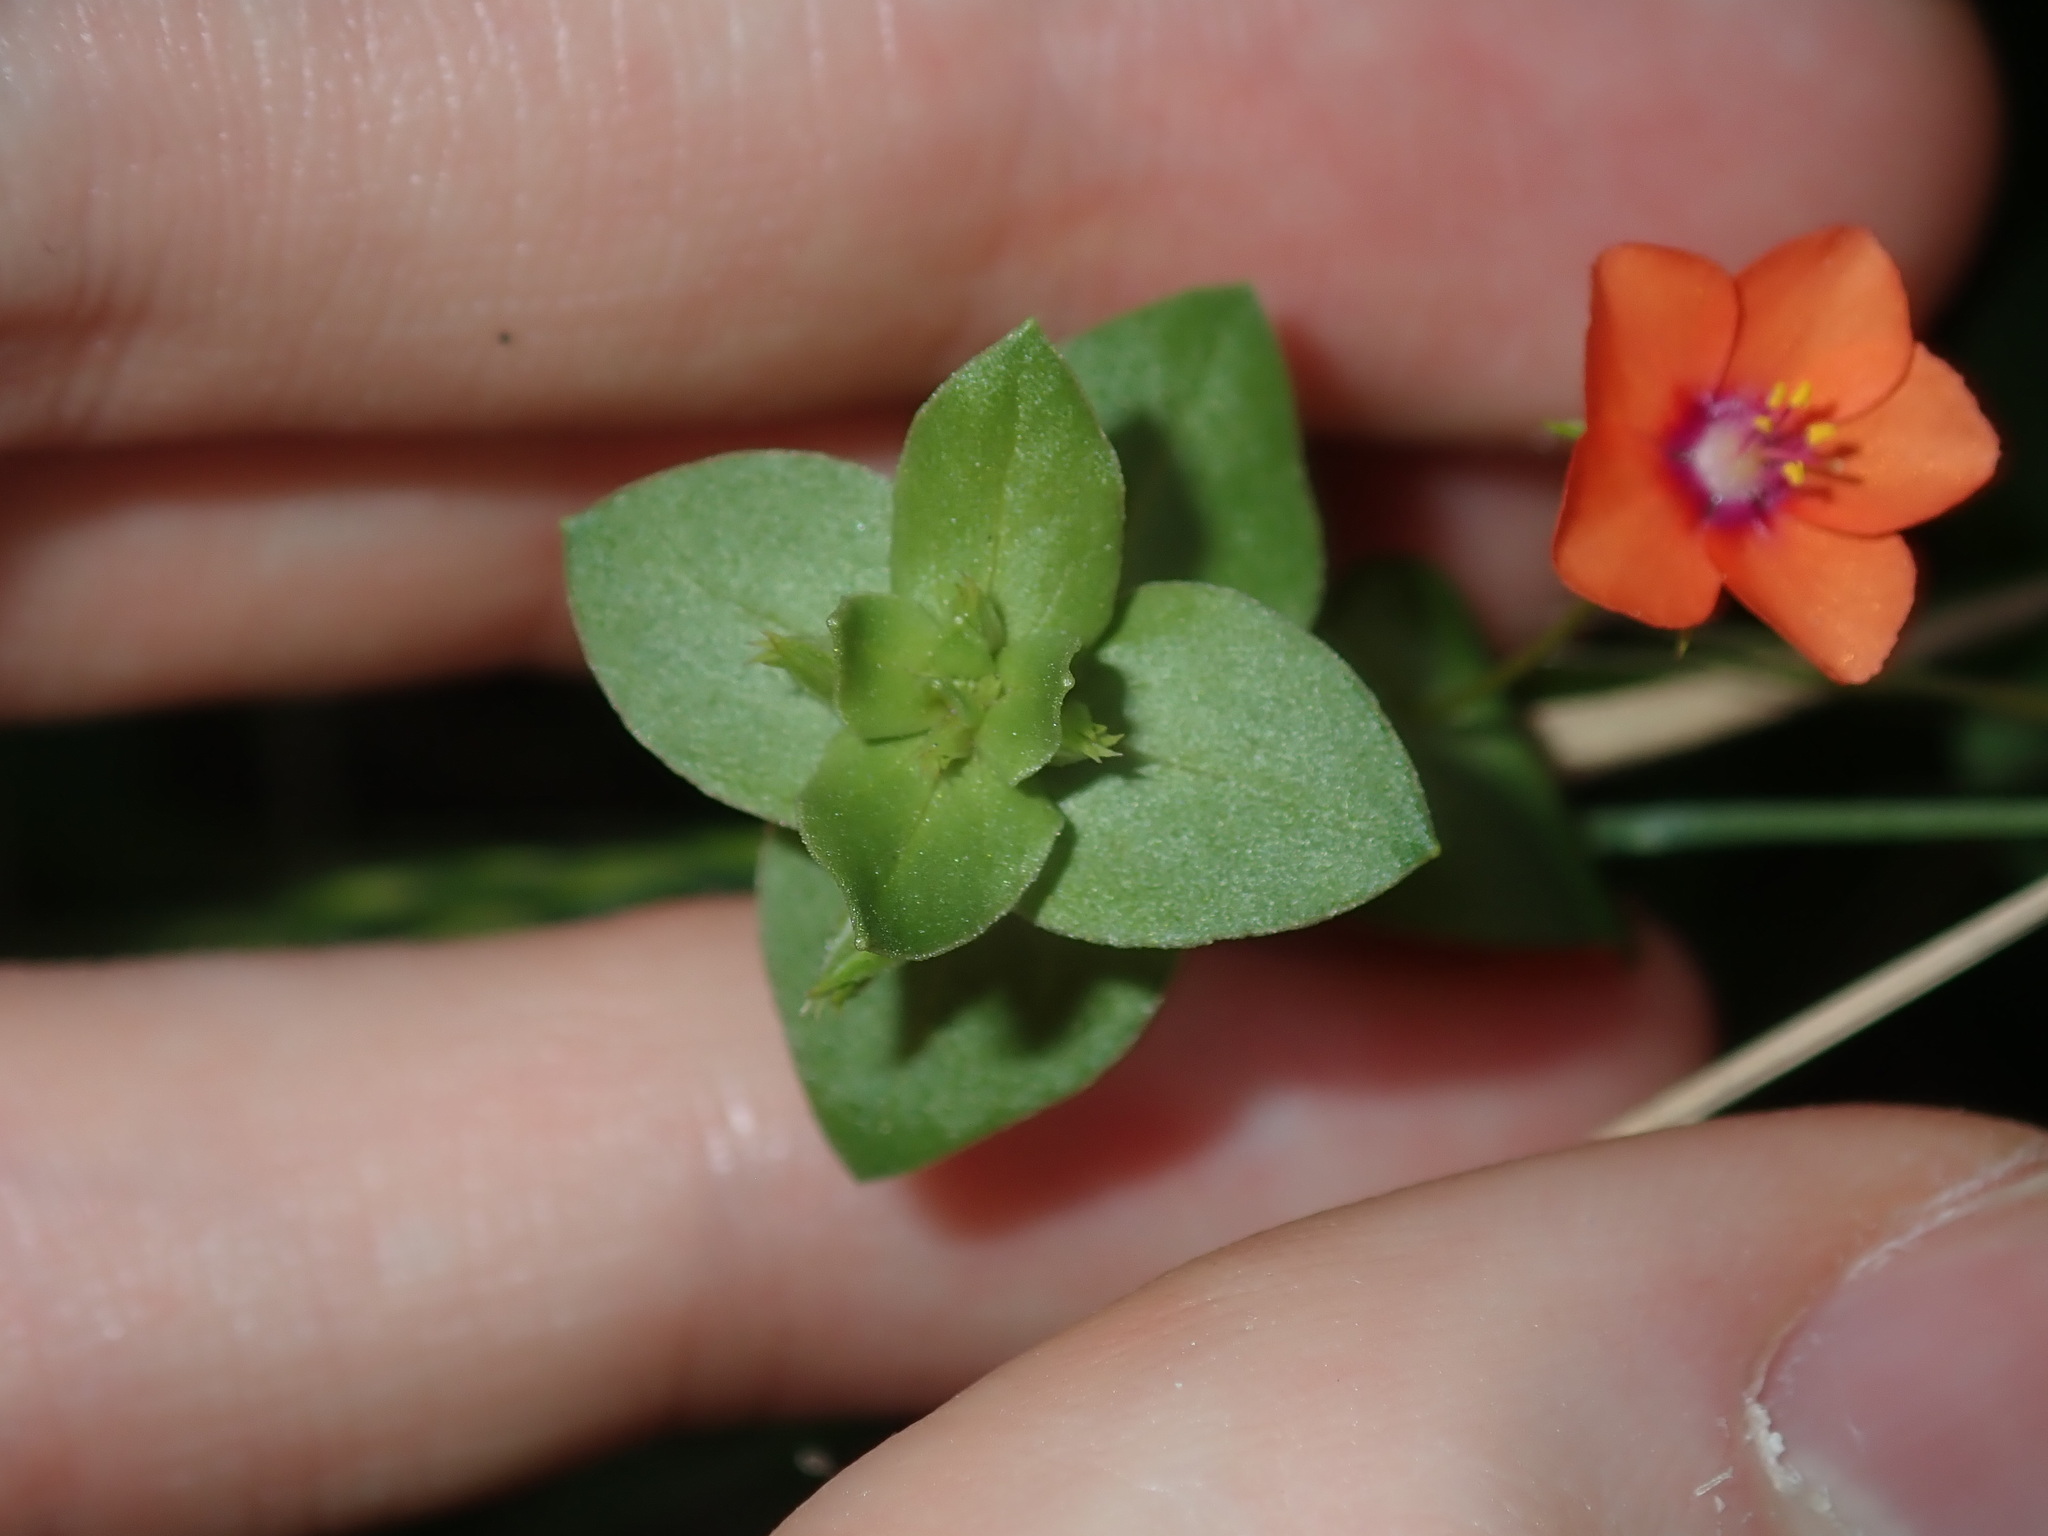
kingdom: Plantae
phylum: Tracheophyta
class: Magnoliopsida
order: Ericales
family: Primulaceae
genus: Lysimachia
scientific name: Lysimachia arvensis
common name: Scarlet pimpernel
